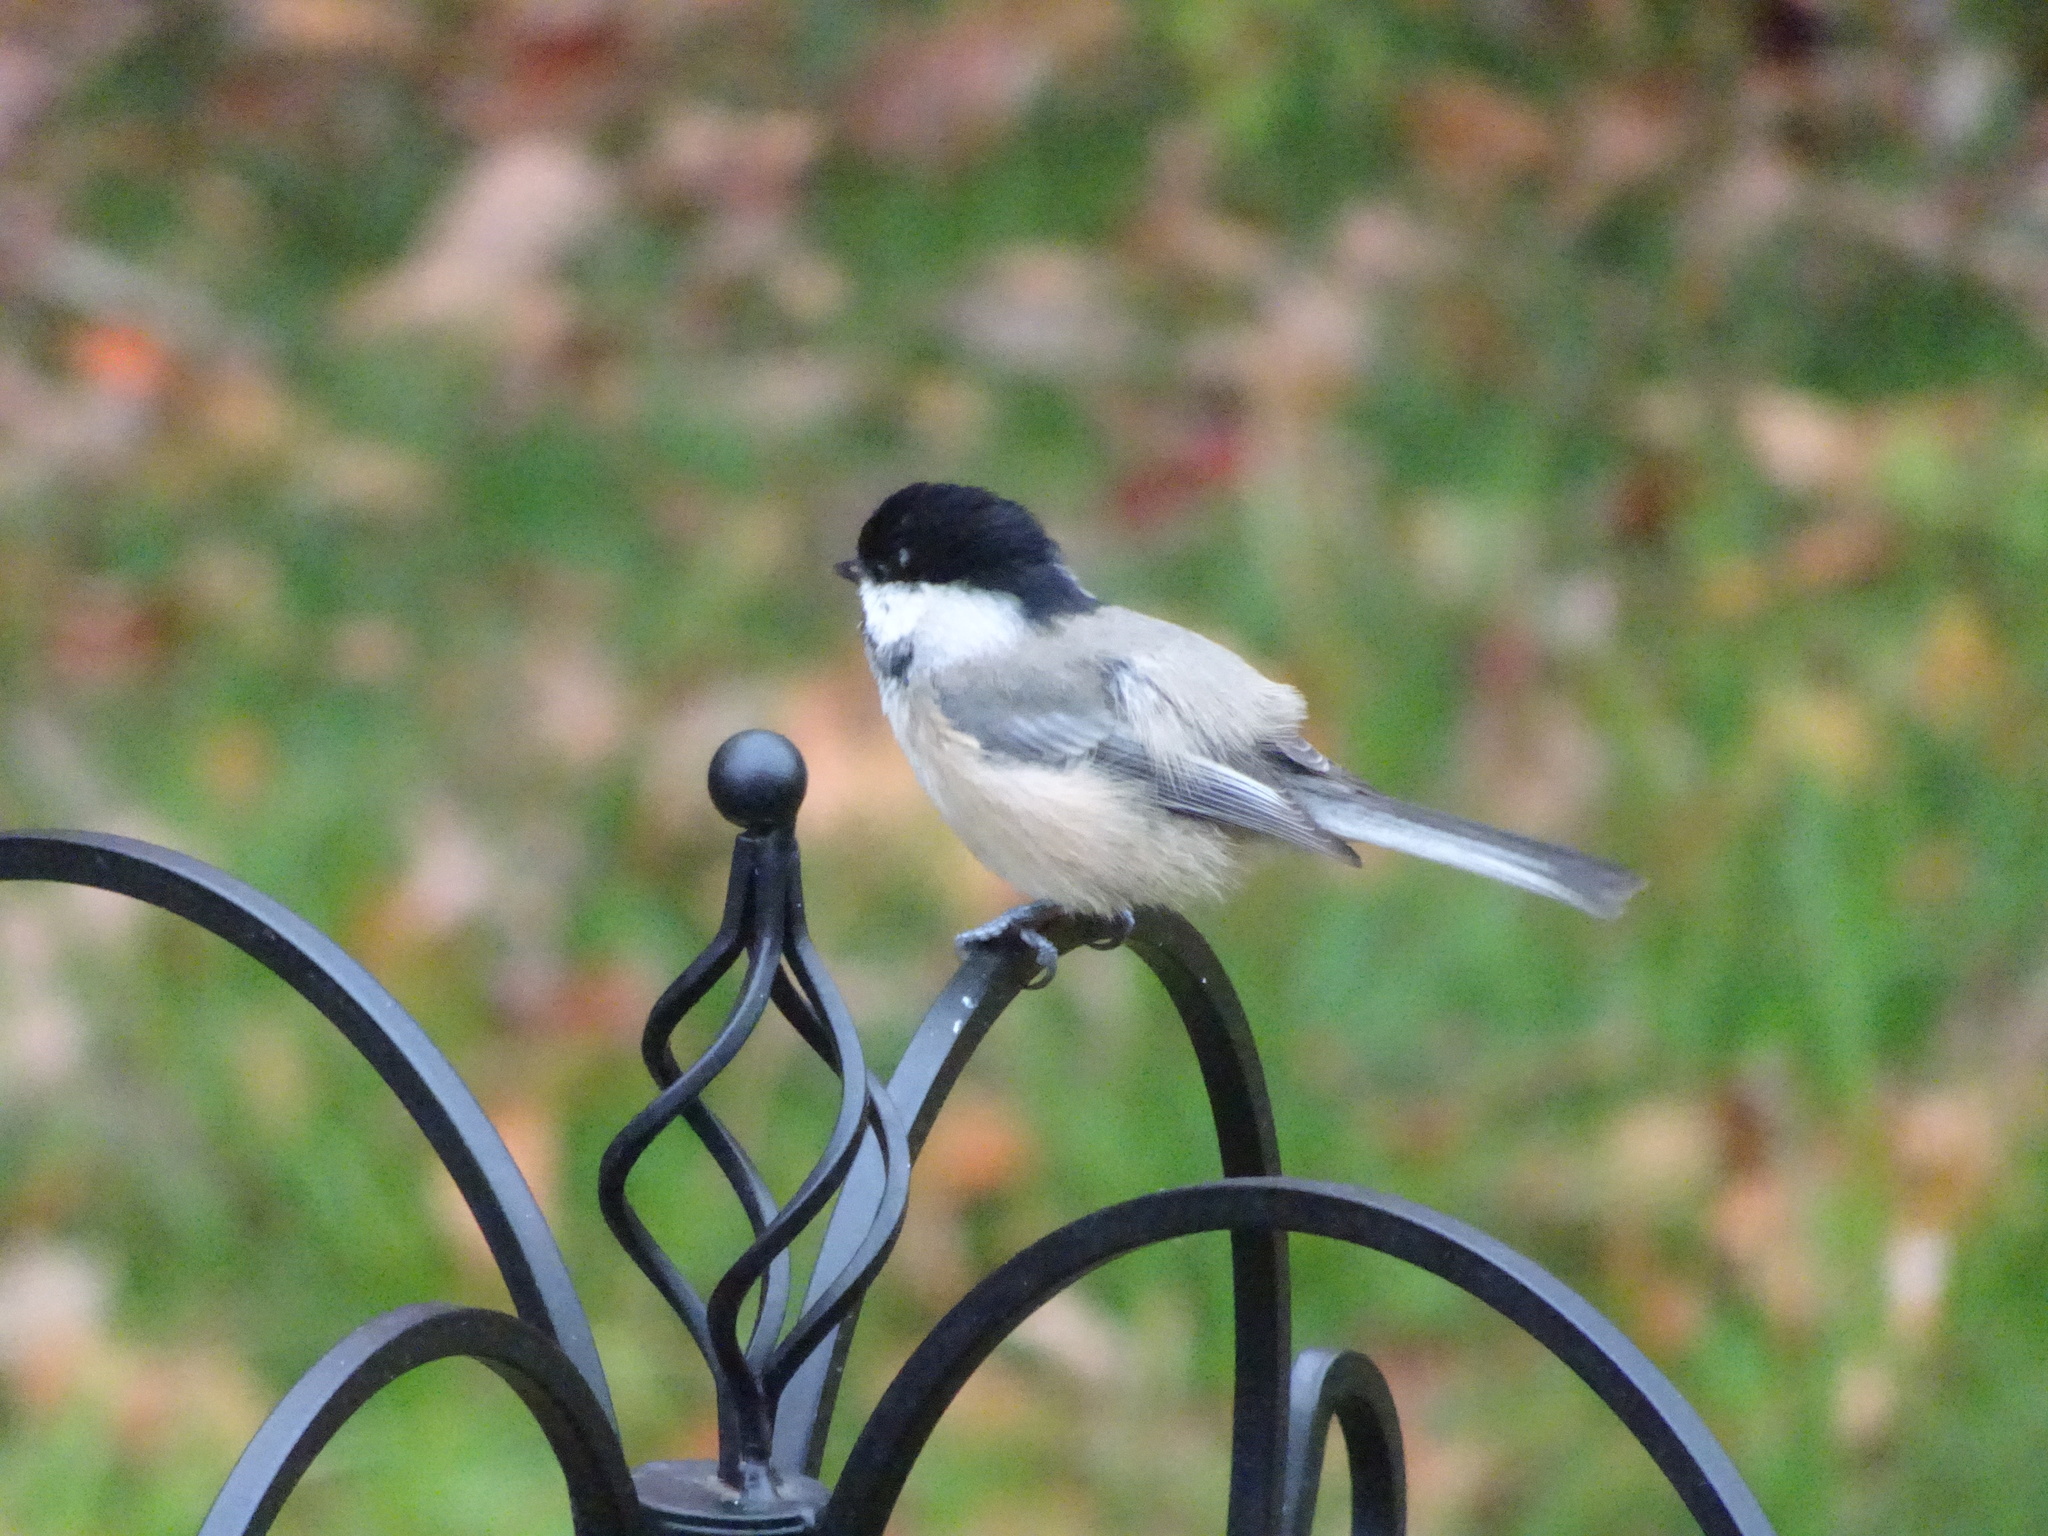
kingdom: Animalia
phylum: Chordata
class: Aves
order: Passeriformes
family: Paridae
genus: Poecile
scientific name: Poecile atricapillus
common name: Black-capped chickadee
